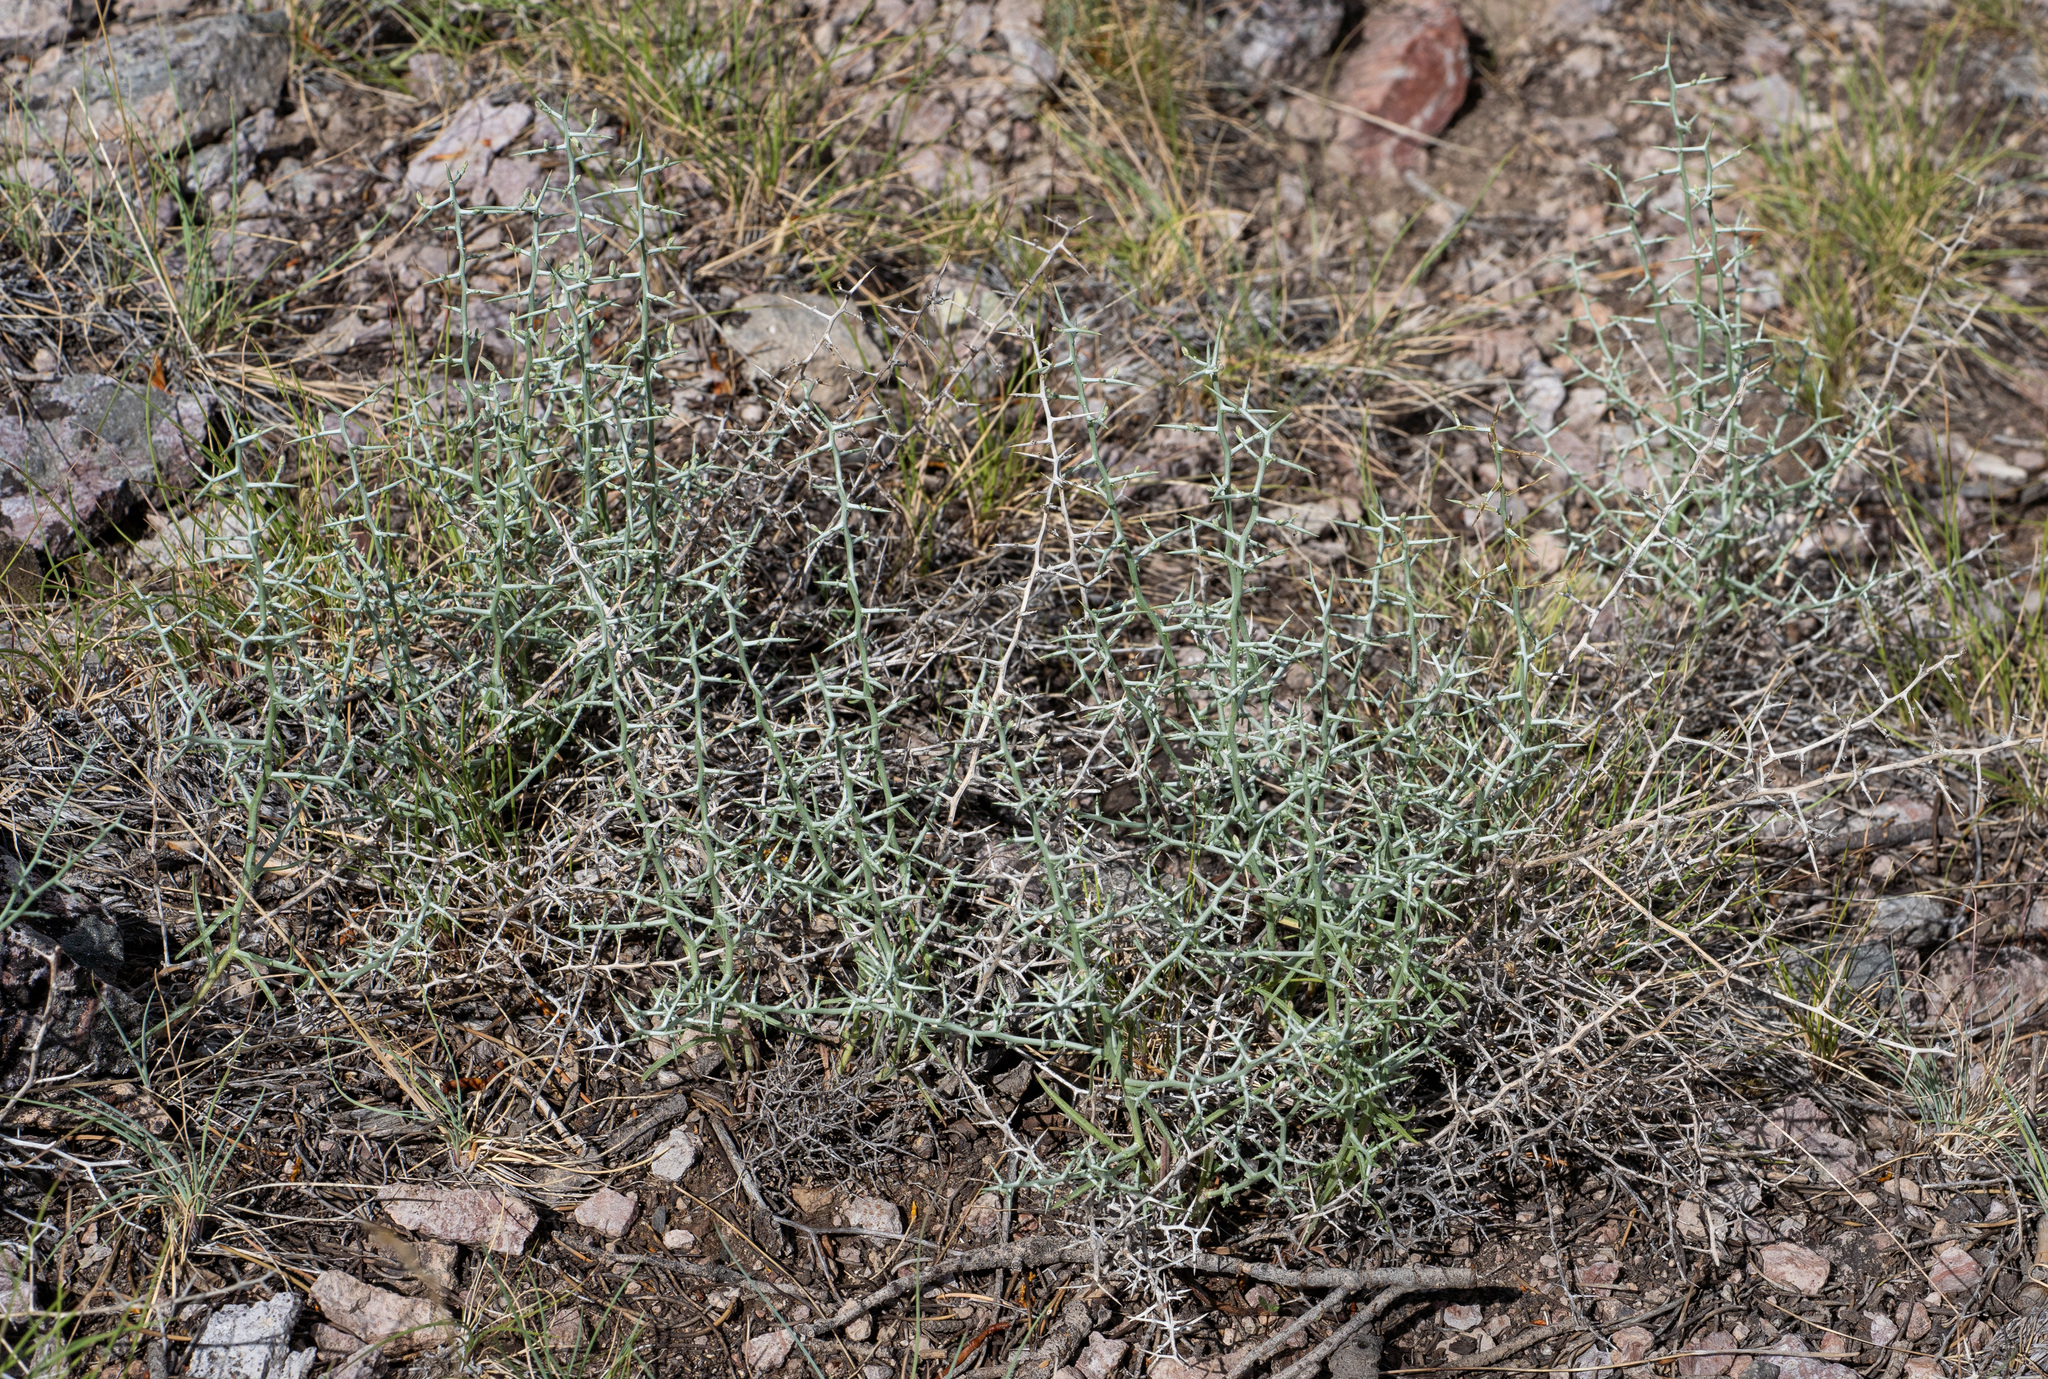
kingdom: Plantae
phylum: Tracheophyta
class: Magnoliopsida
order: Asterales
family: Asteraceae
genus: Pleiacanthus
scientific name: Pleiacanthus spinosus
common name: Thorny skeleton-weed
